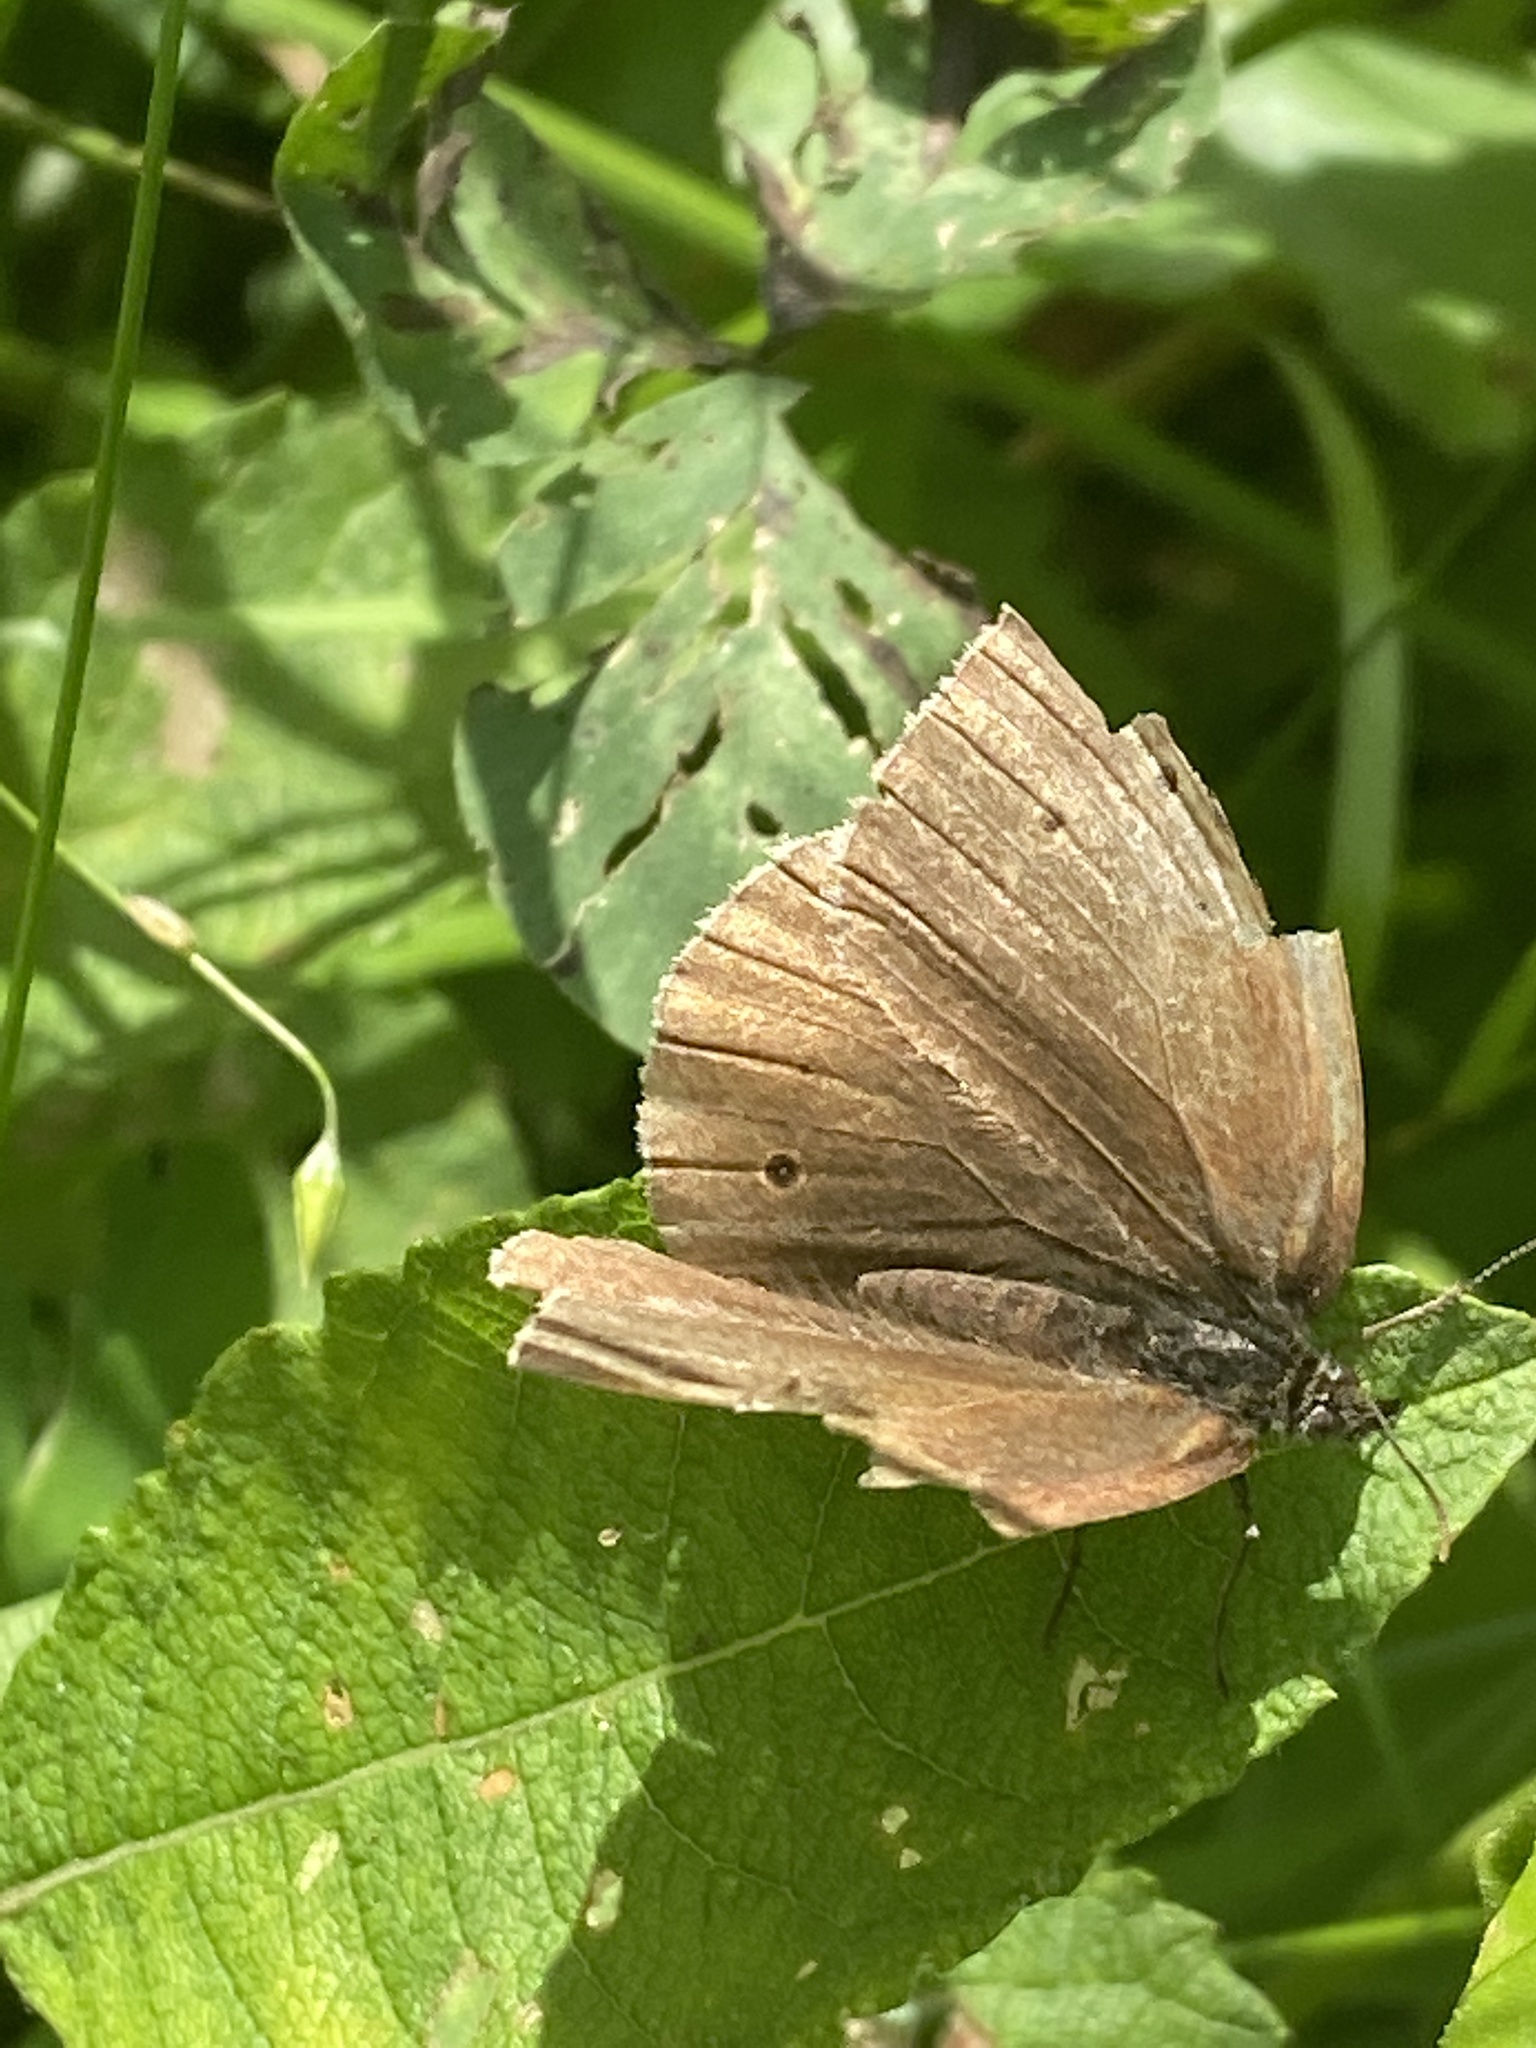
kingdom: Animalia
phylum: Arthropoda
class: Insecta
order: Lepidoptera
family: Nymphalidae
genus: Aphantopus
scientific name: Aphantopus hyperantus
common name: Ringlet
